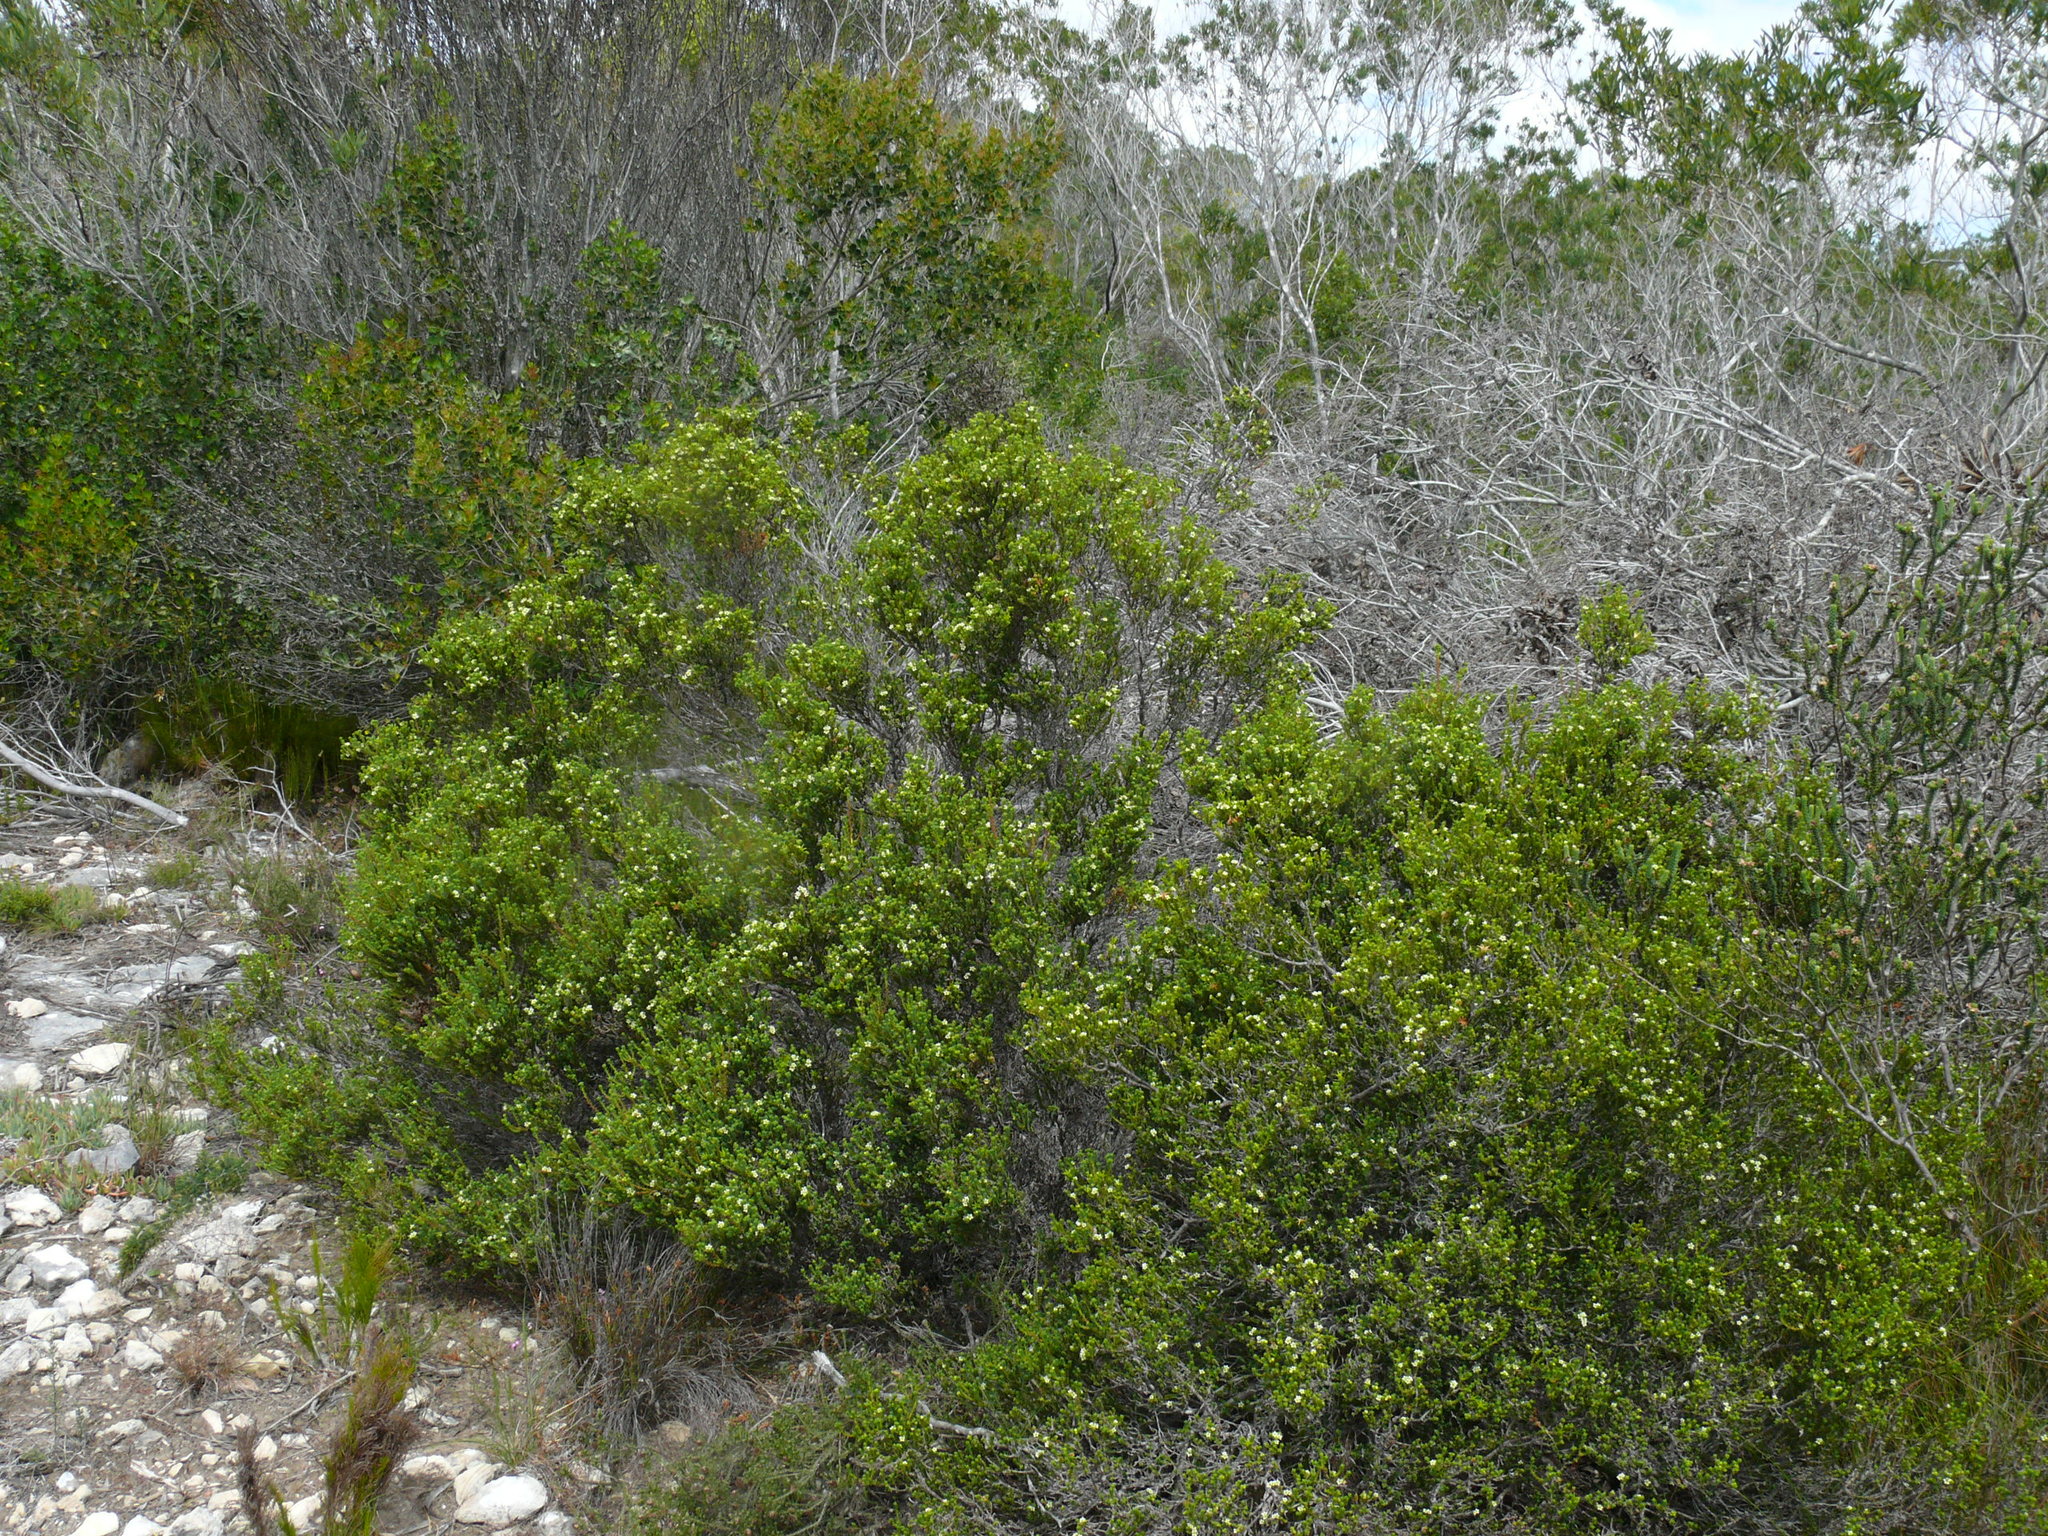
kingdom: Plantae
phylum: Tracheophyta
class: Magnoliopsida
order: Sapindales
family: Rutaceae
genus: Diosma
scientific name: Diosma oppositifolia
